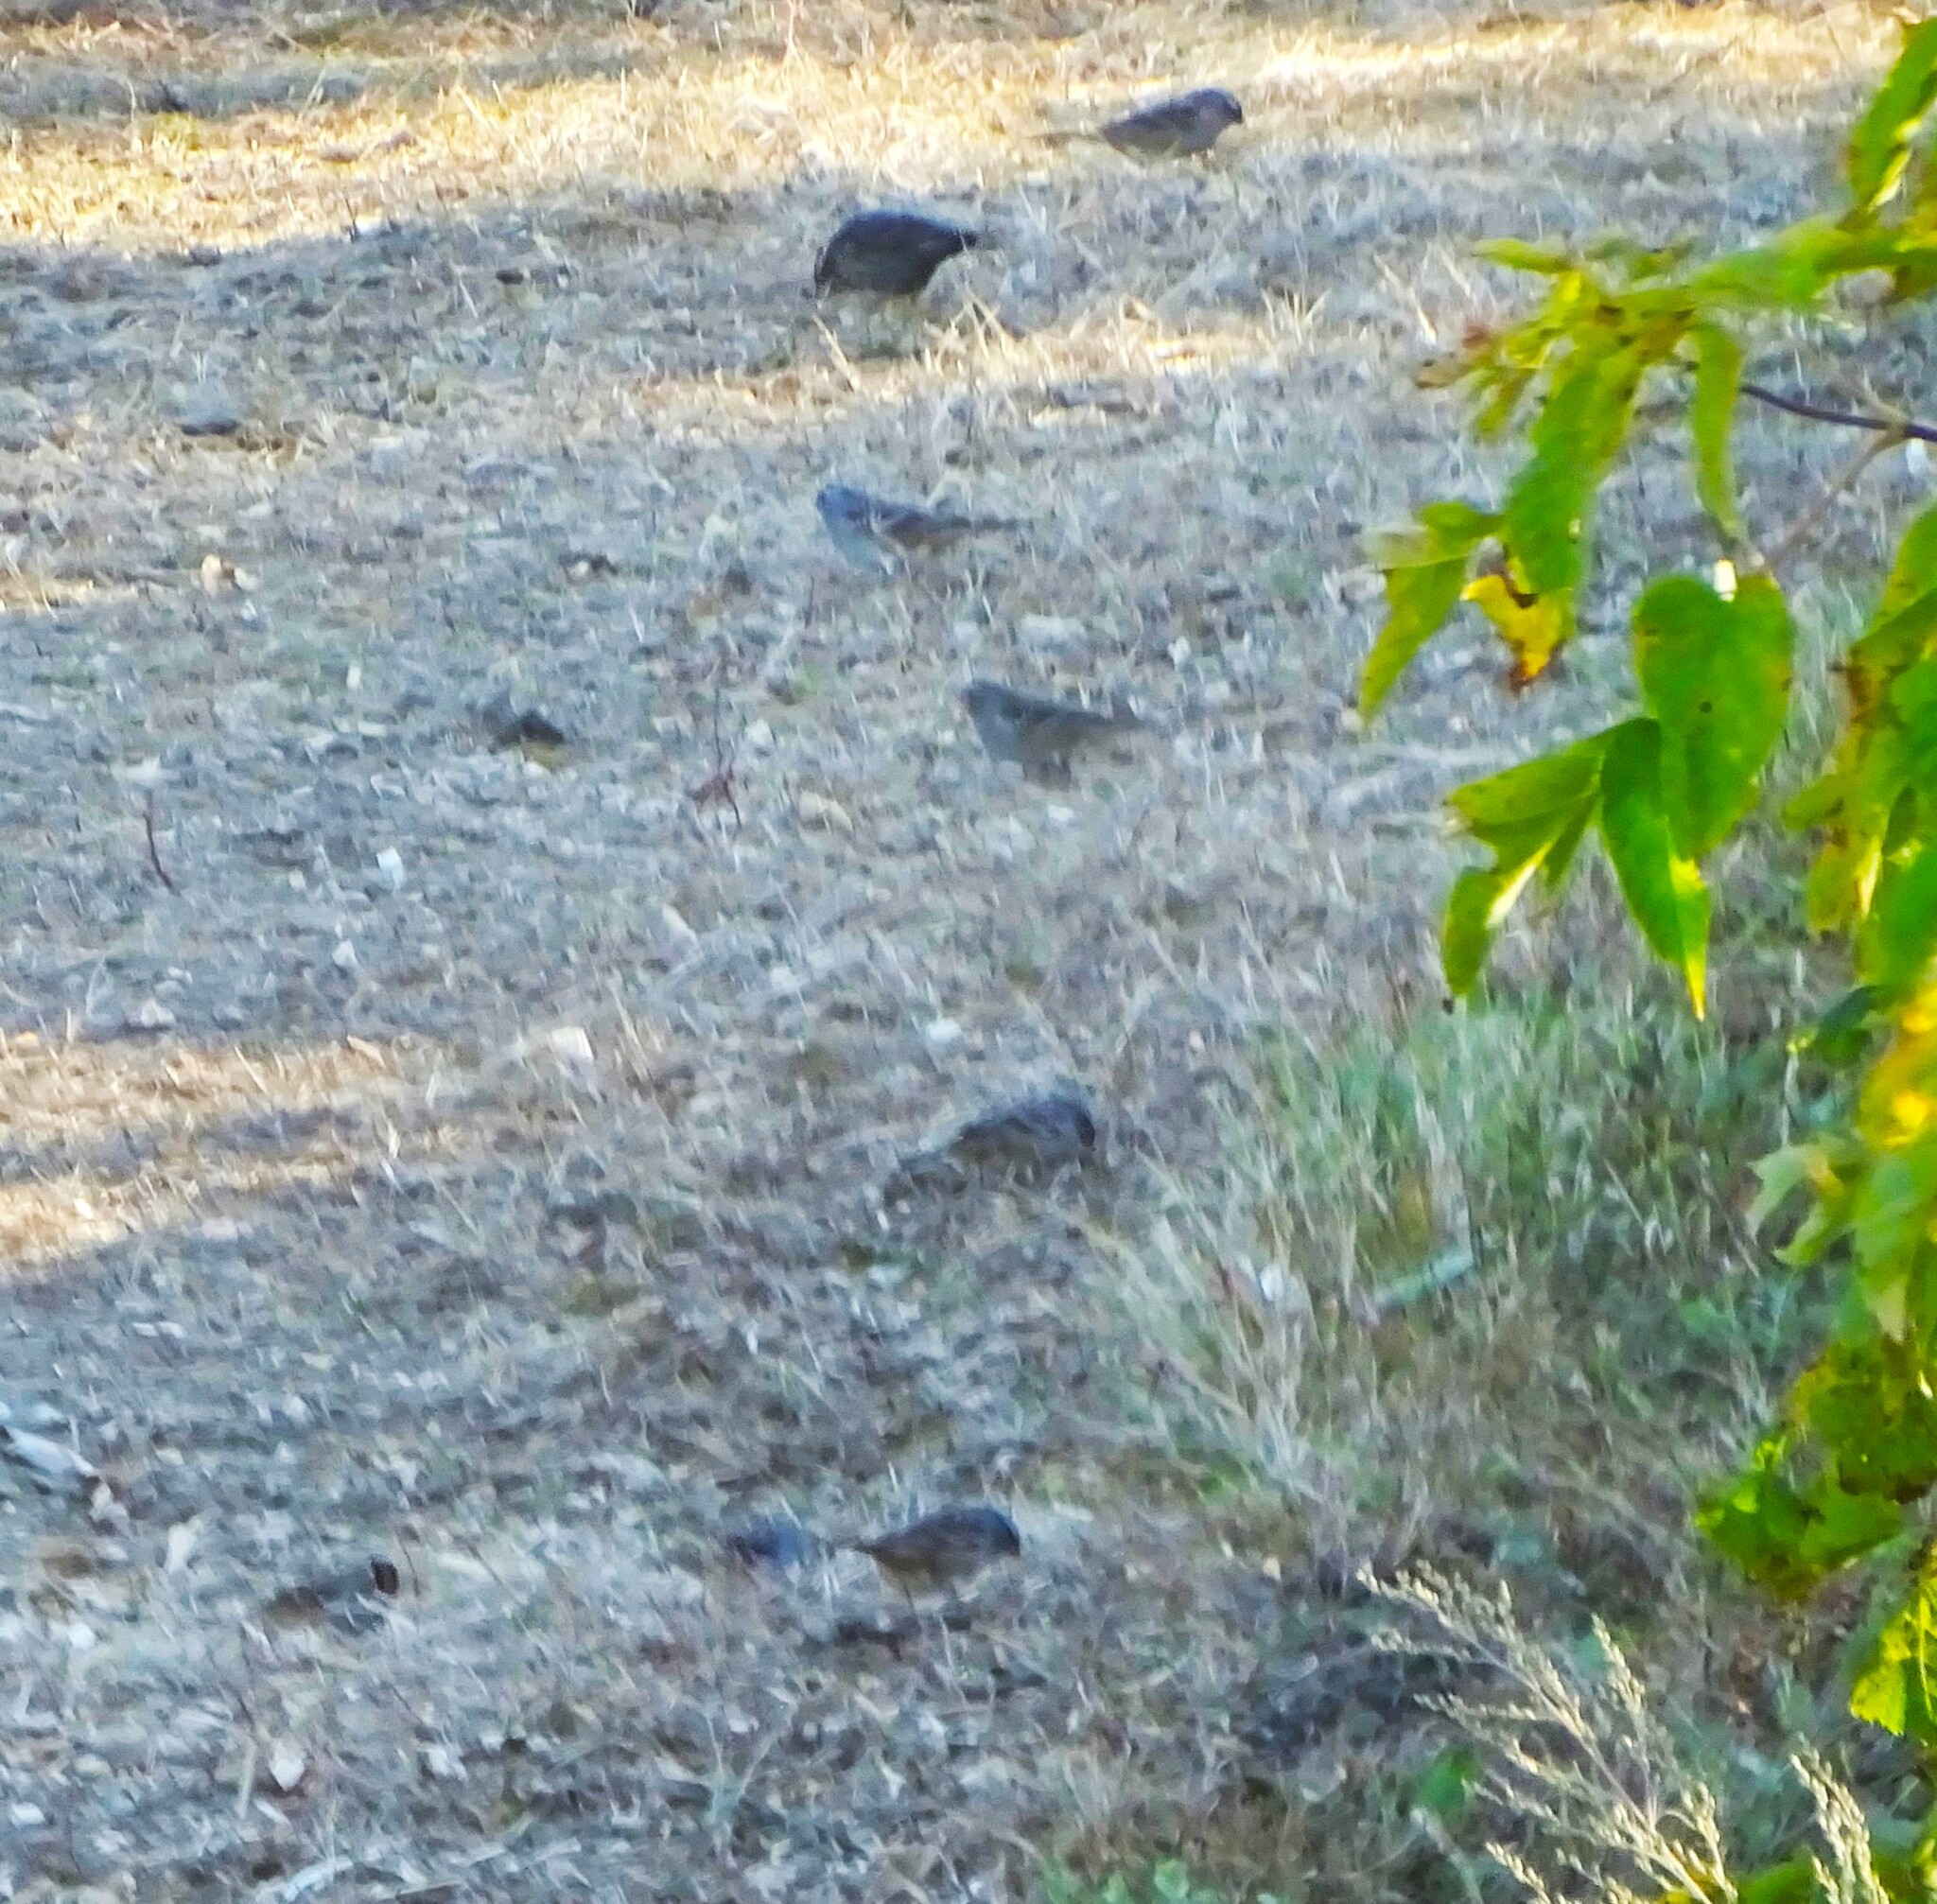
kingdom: Animalia
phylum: Chordata
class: Aves
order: Passeriformes
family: Passerellidae
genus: Zonotrichia
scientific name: Zonotrichia leucophrys
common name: White-crowned sparrow
